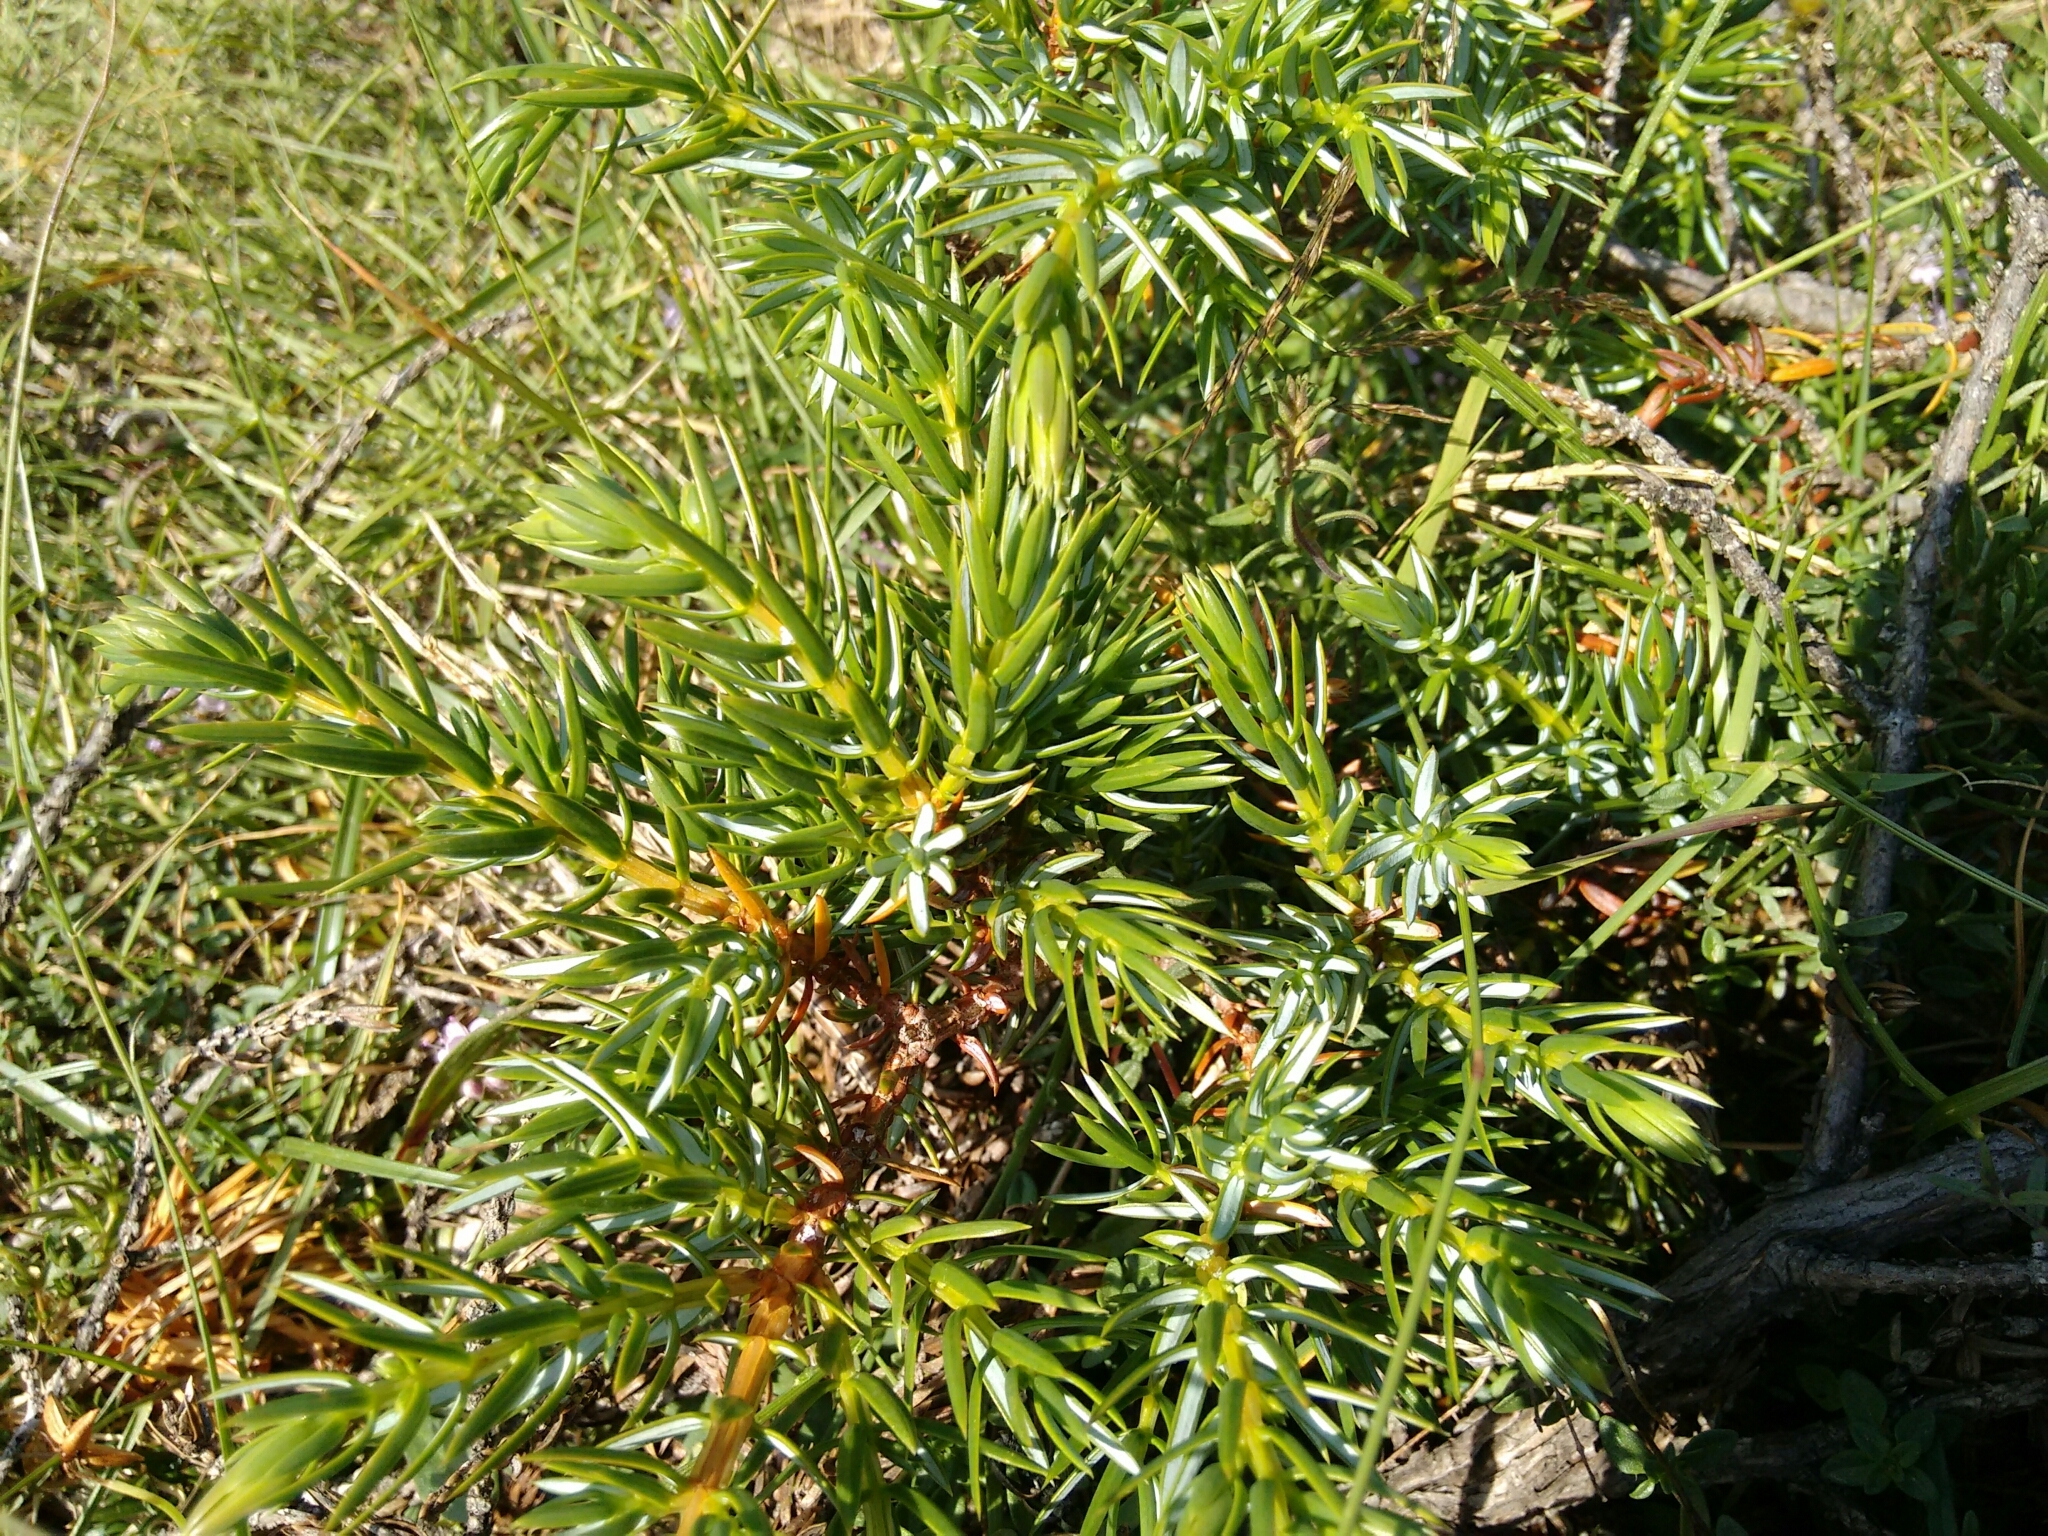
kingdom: Plantae
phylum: Tracheophyta
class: Pinopsida
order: Pinales
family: Cupressaceae
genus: Juniperus
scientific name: Juniperus communis
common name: Common juniper
